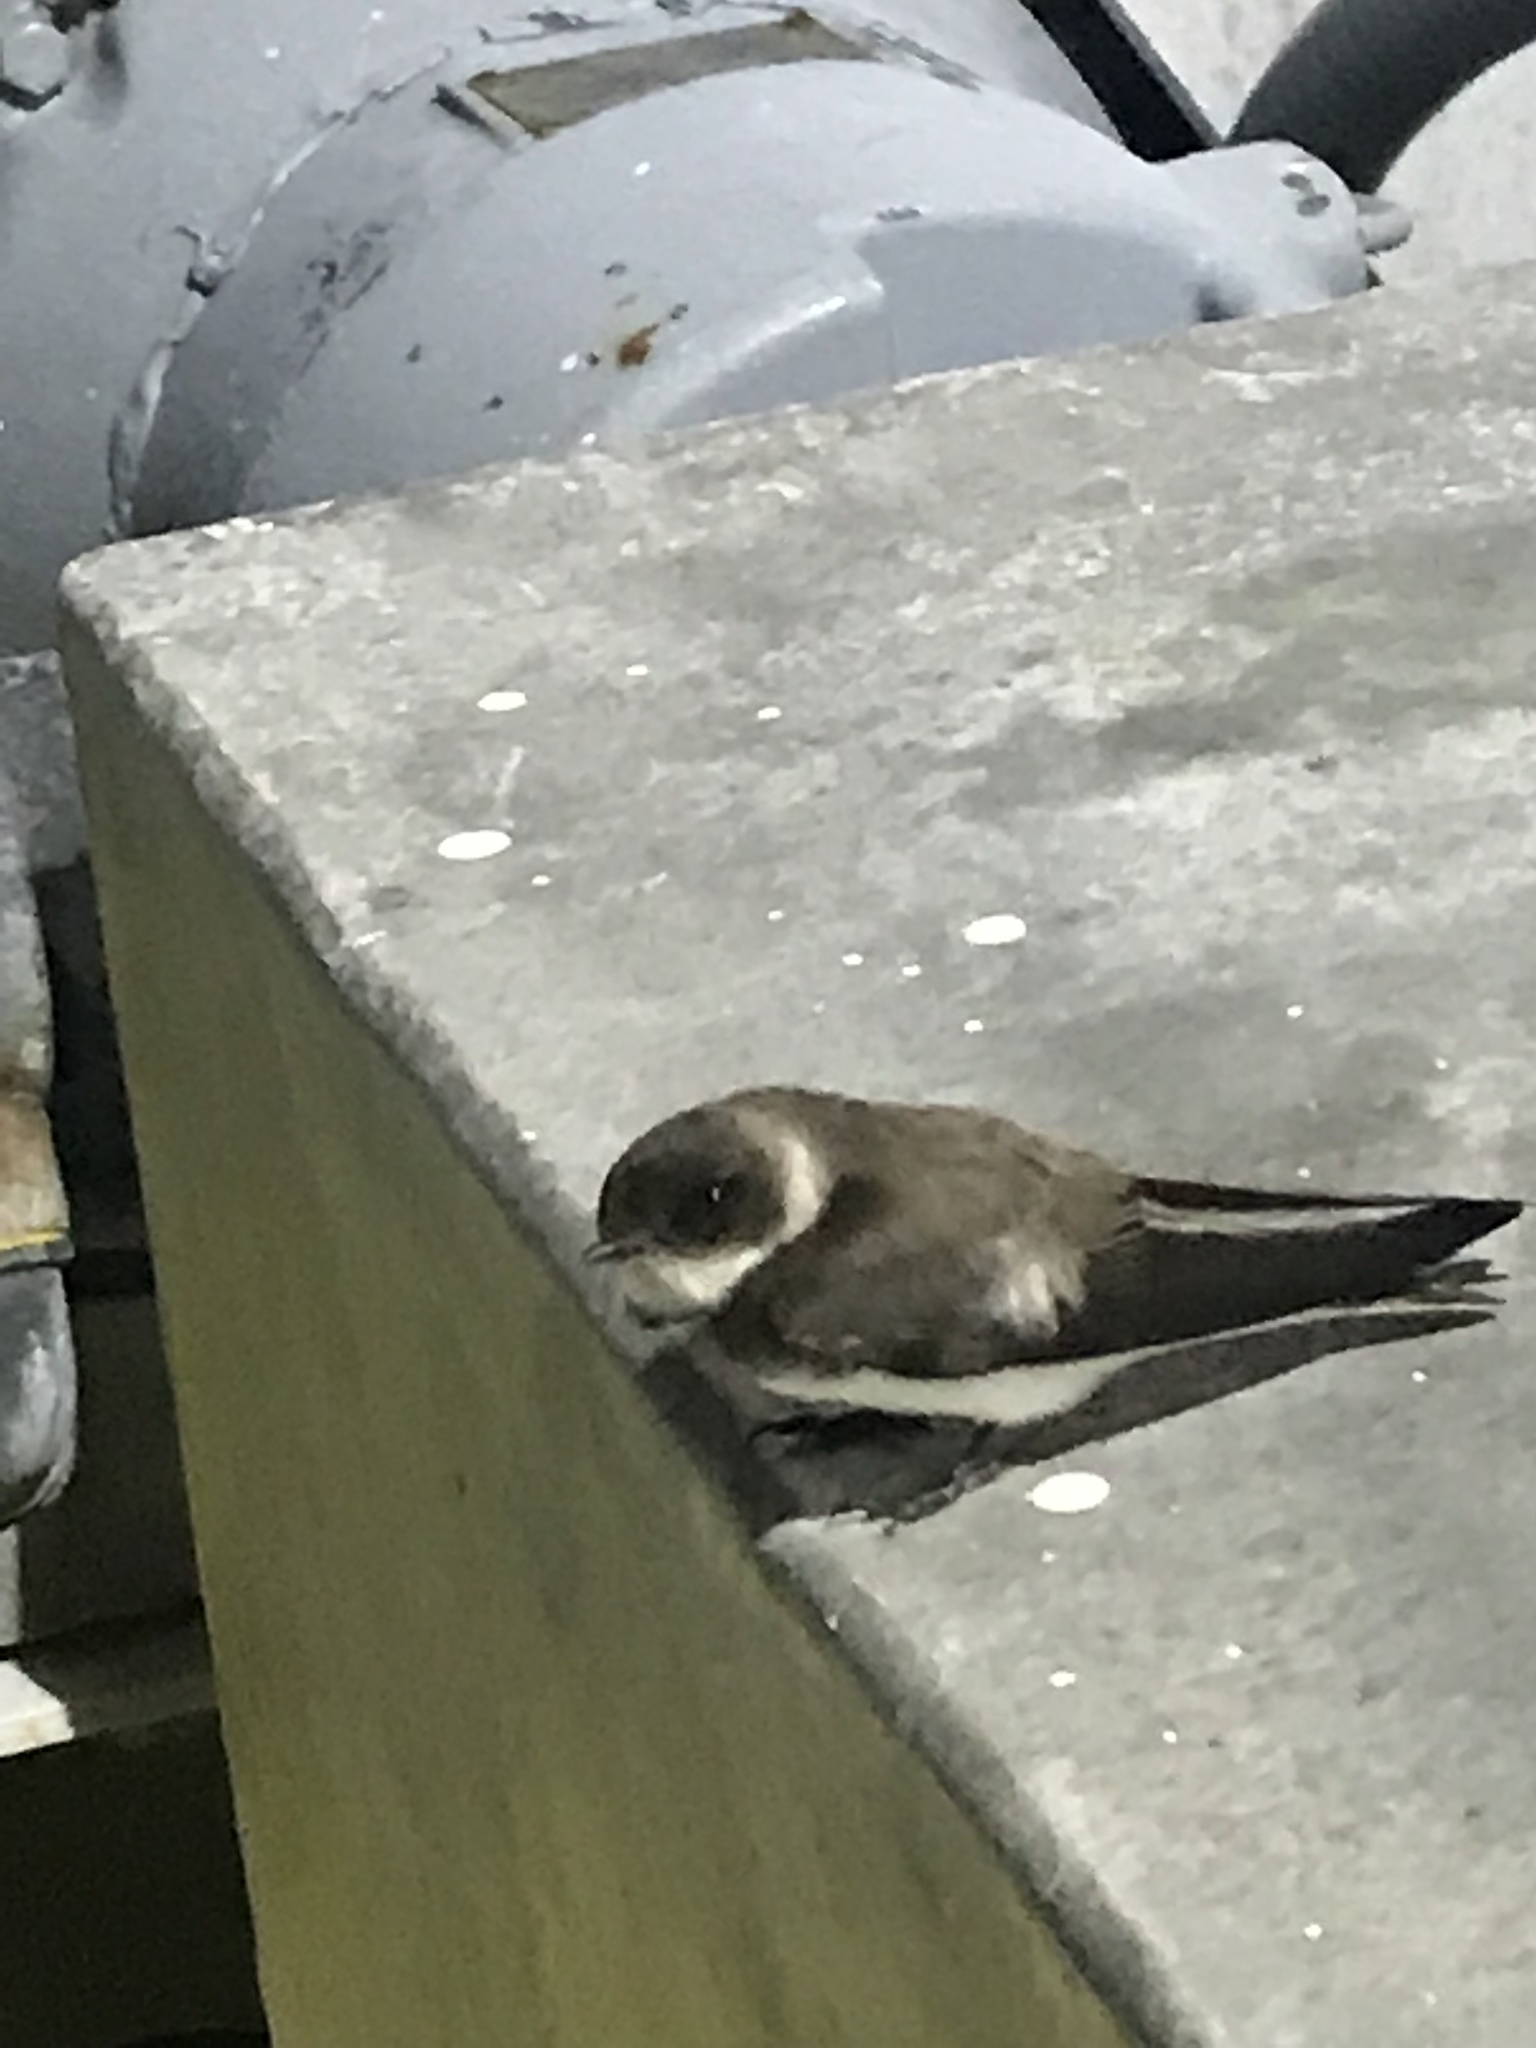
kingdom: Animalia
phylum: Chordata
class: Aves
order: Passeriformes
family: Hirundinidae
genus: Riparia
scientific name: Riparia riparia
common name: Sand martin
